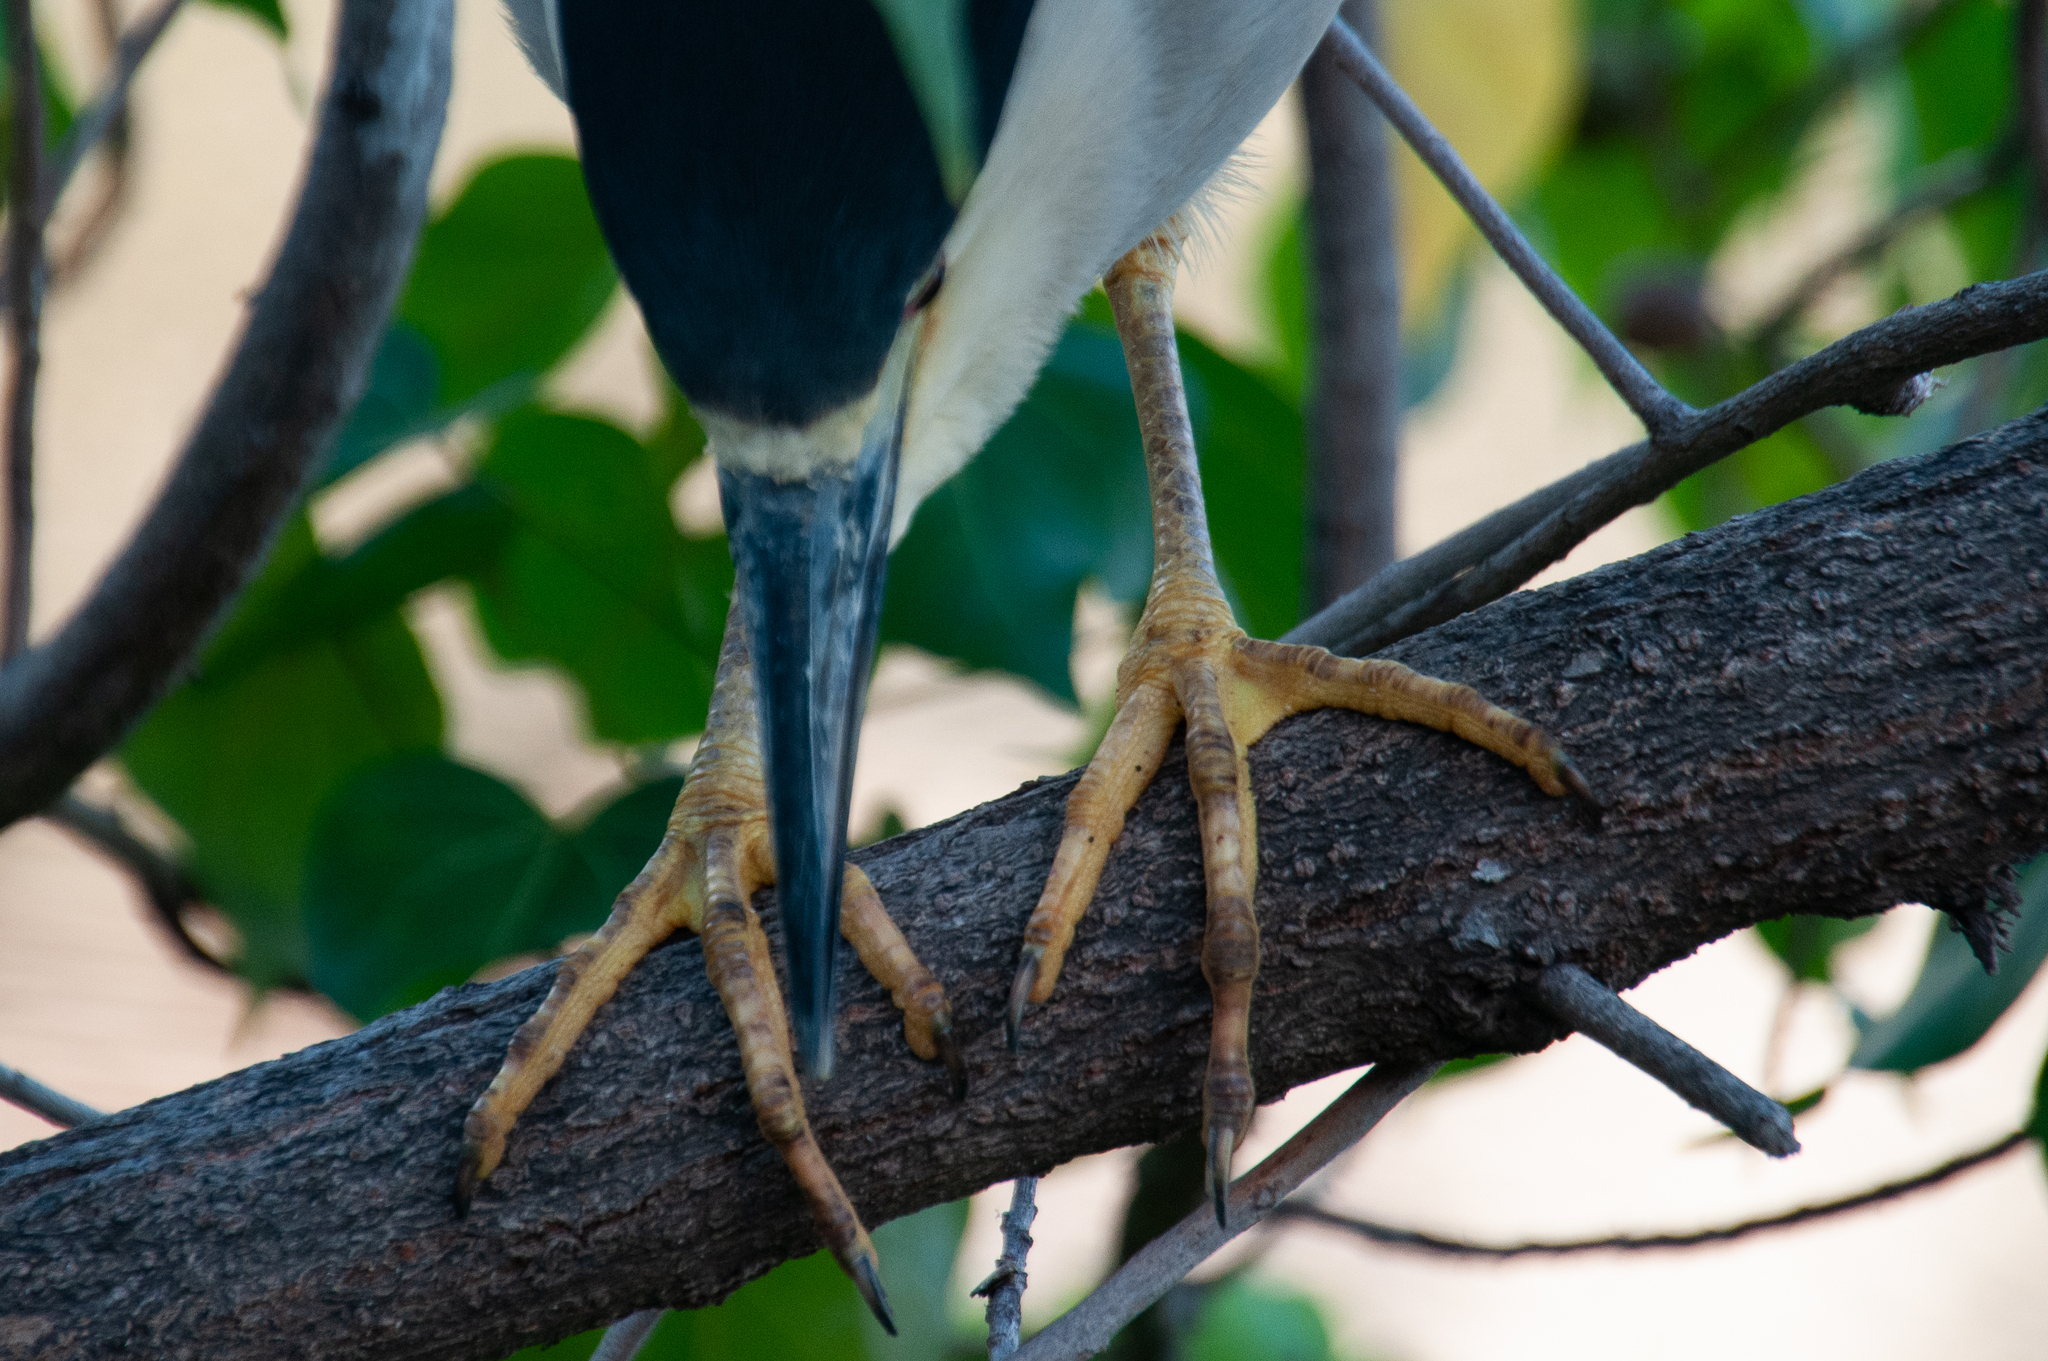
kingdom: Animalia
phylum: Chordata
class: Aves
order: Pelecaniformes
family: Ardeidae
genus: Nycticorax
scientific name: Nycticorax nycticorax
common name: Black-crowned night heron
